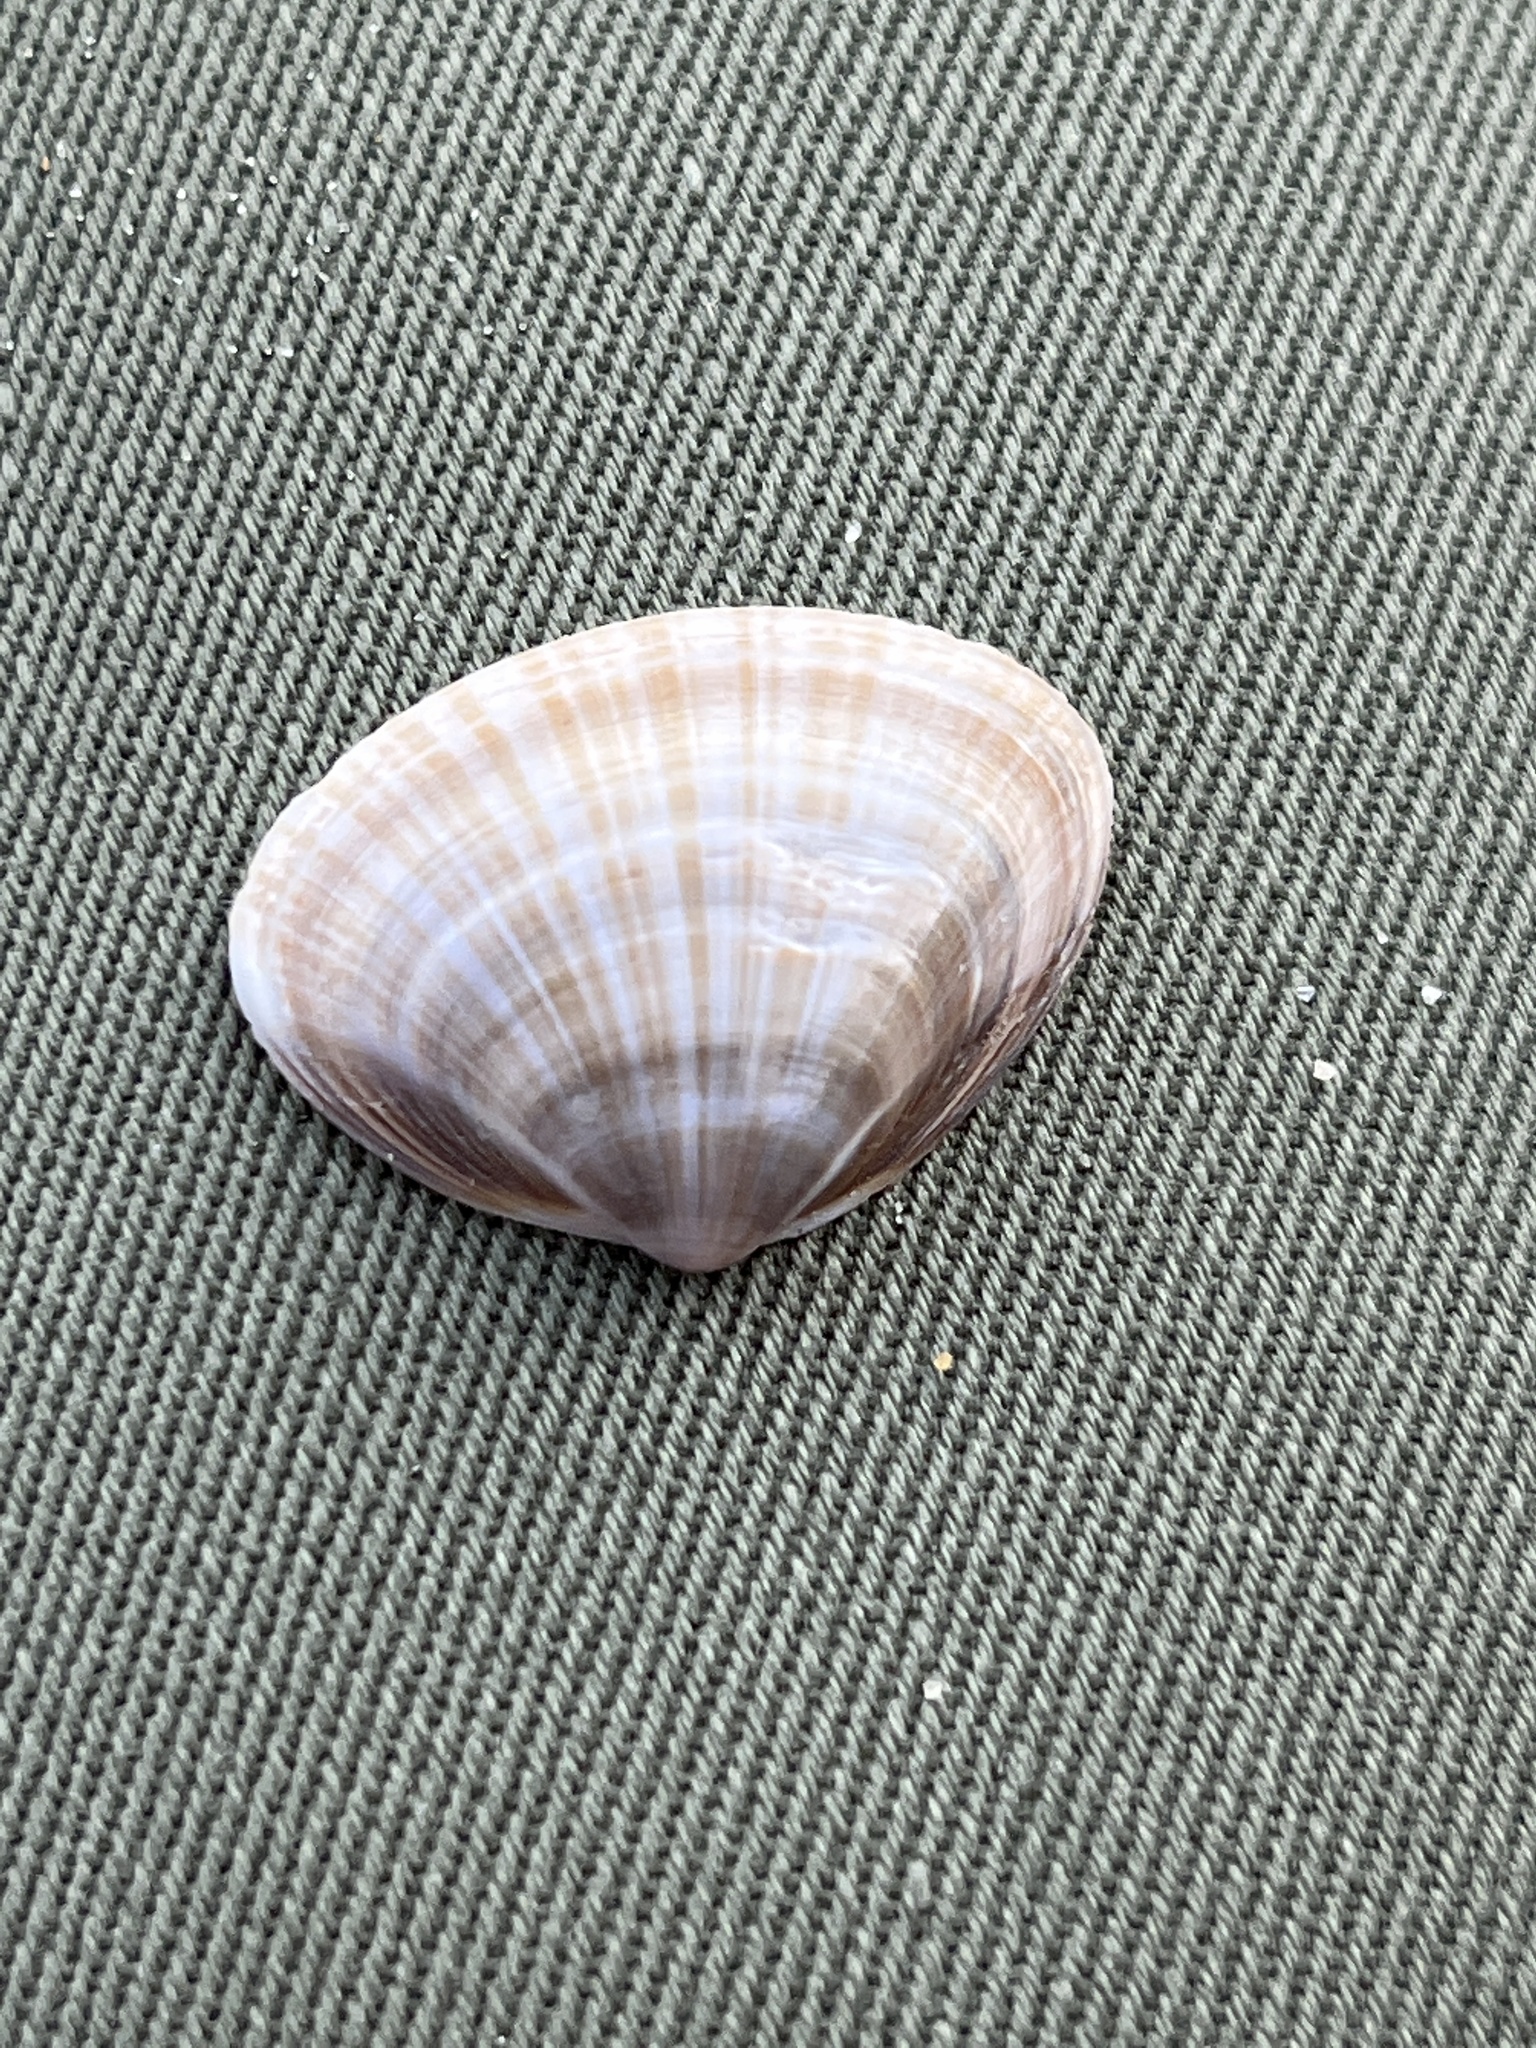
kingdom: Animalia
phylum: Mollusca
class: Bivalvia
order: Venerida
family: Mactridae
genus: Mactra
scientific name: Mactra chinensis
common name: Chinese surf clam
